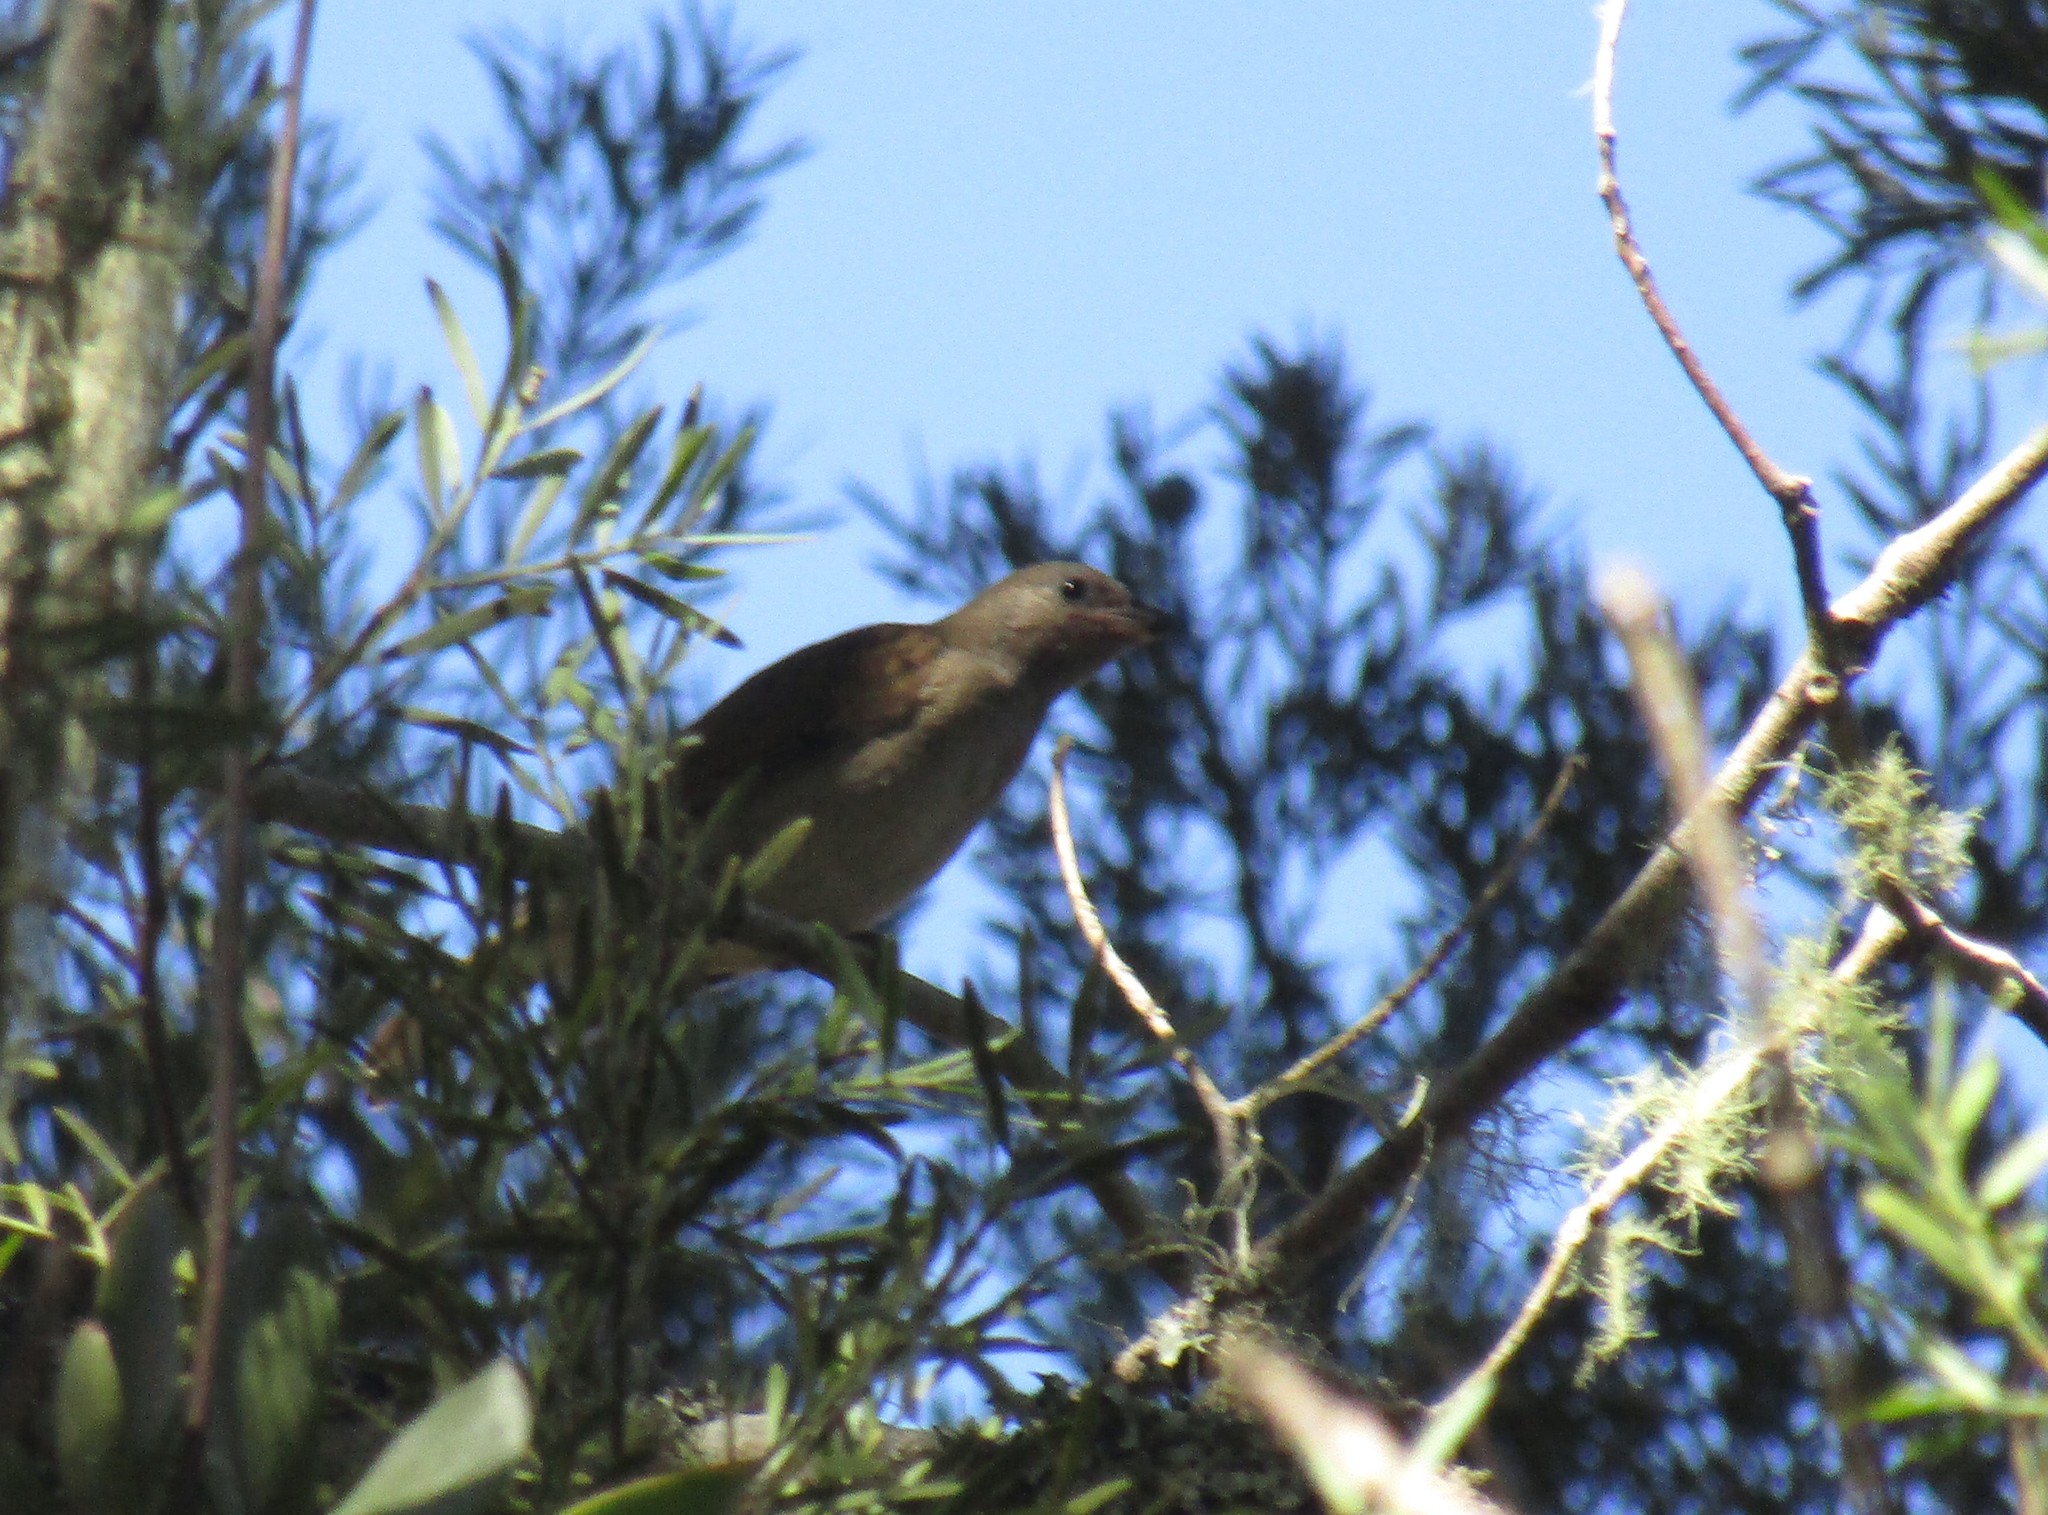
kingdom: Animalia
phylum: Chordata
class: Aves
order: Piciformes
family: Indicatoridae
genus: Indicator
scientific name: Indicator minor
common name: Lesser honeyguide
